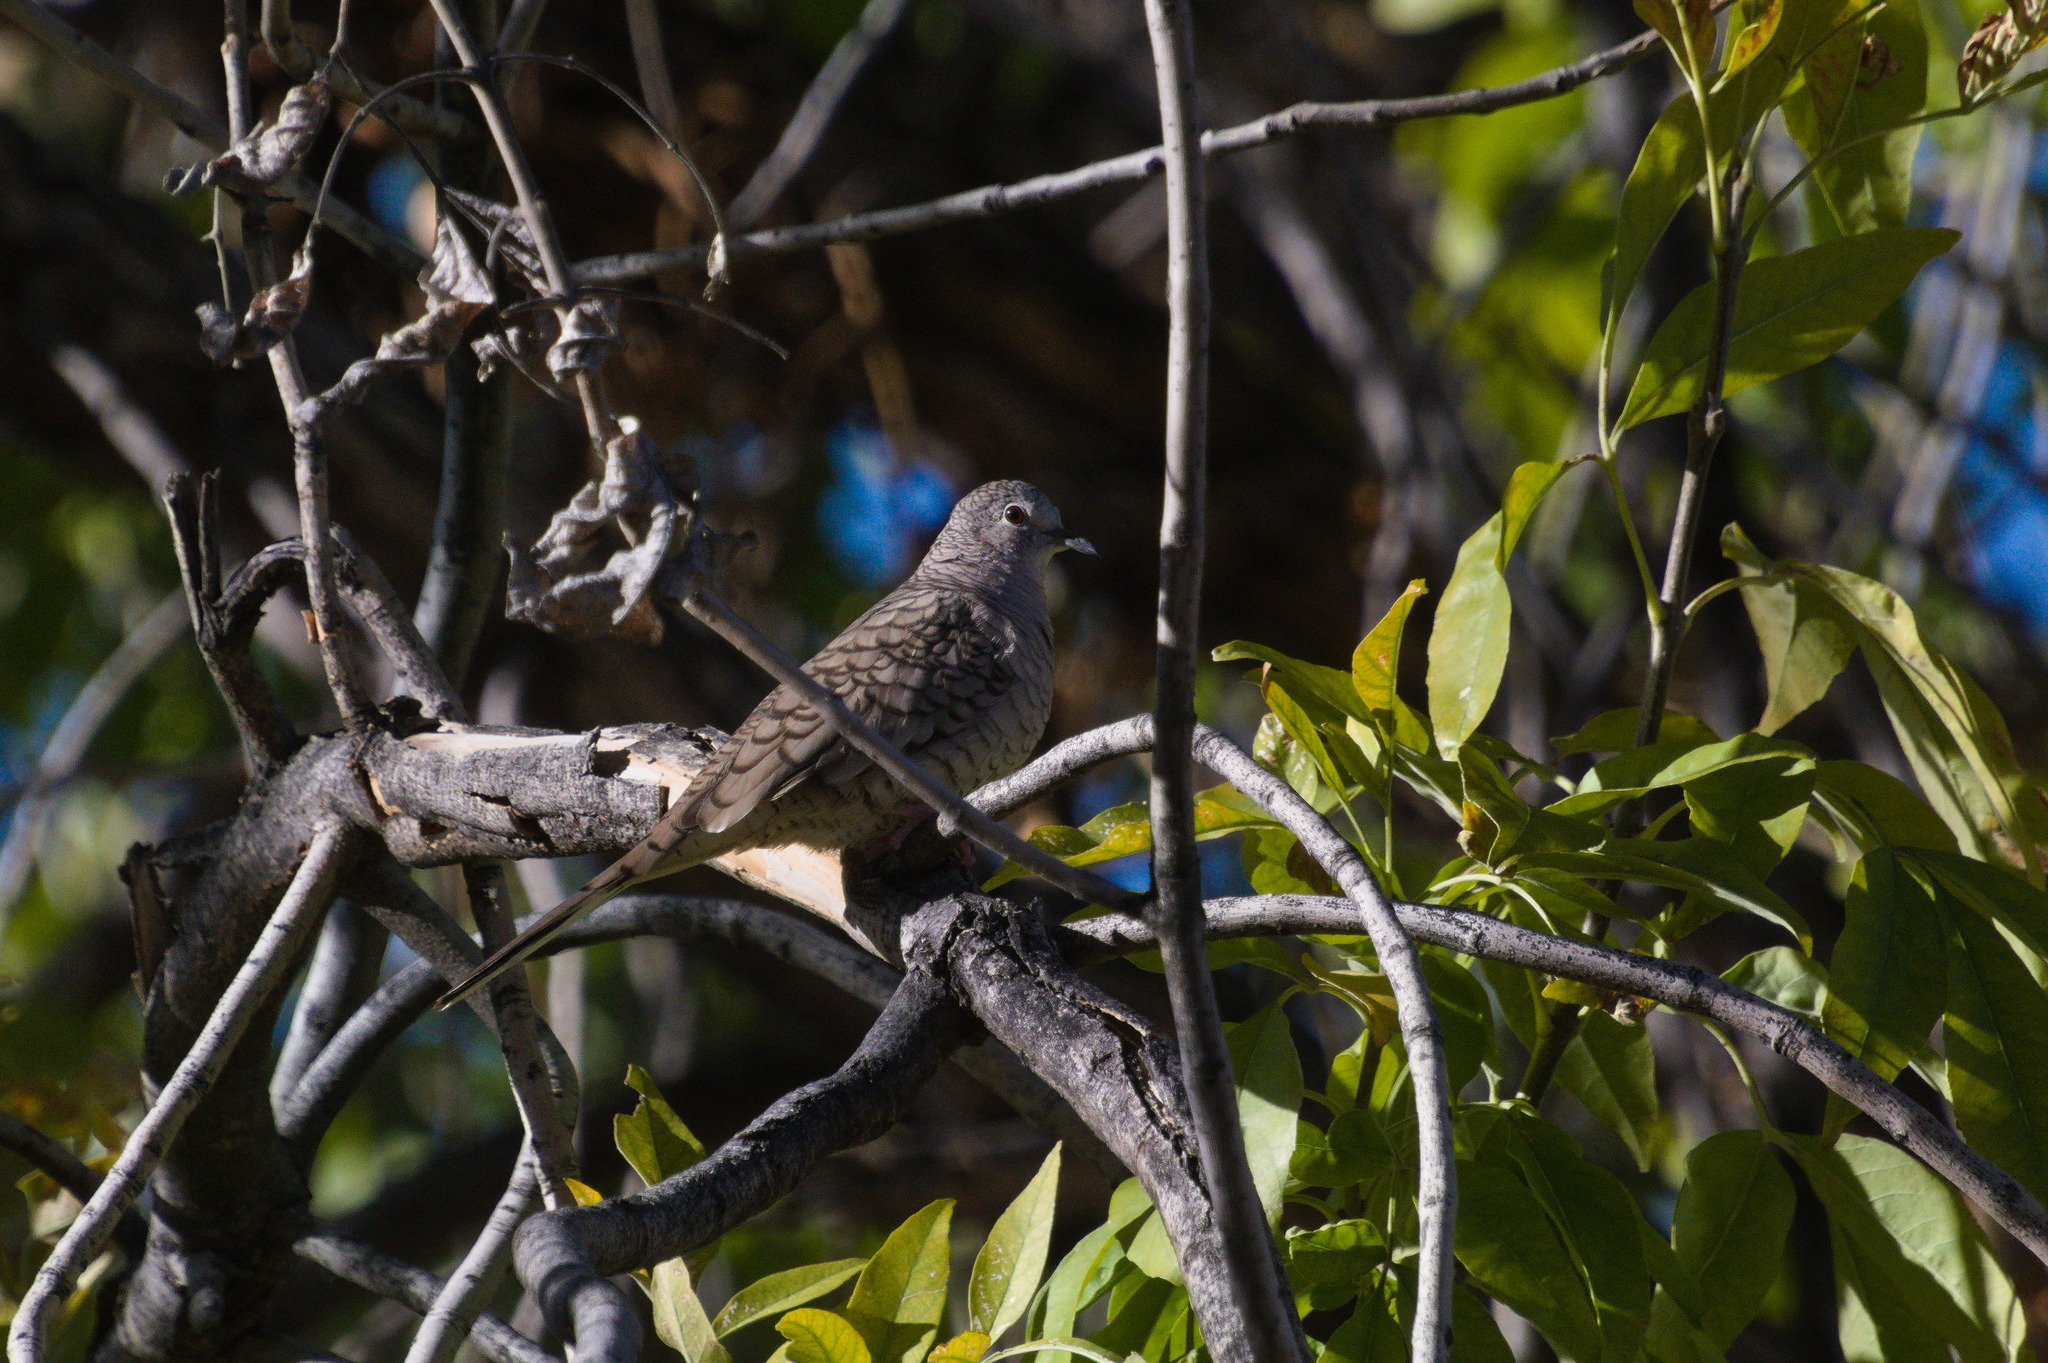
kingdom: Animalia
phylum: Chordata
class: Aves
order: Columbiformes
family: Columbidae
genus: Columbina
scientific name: Columbina inca
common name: Inca dove
